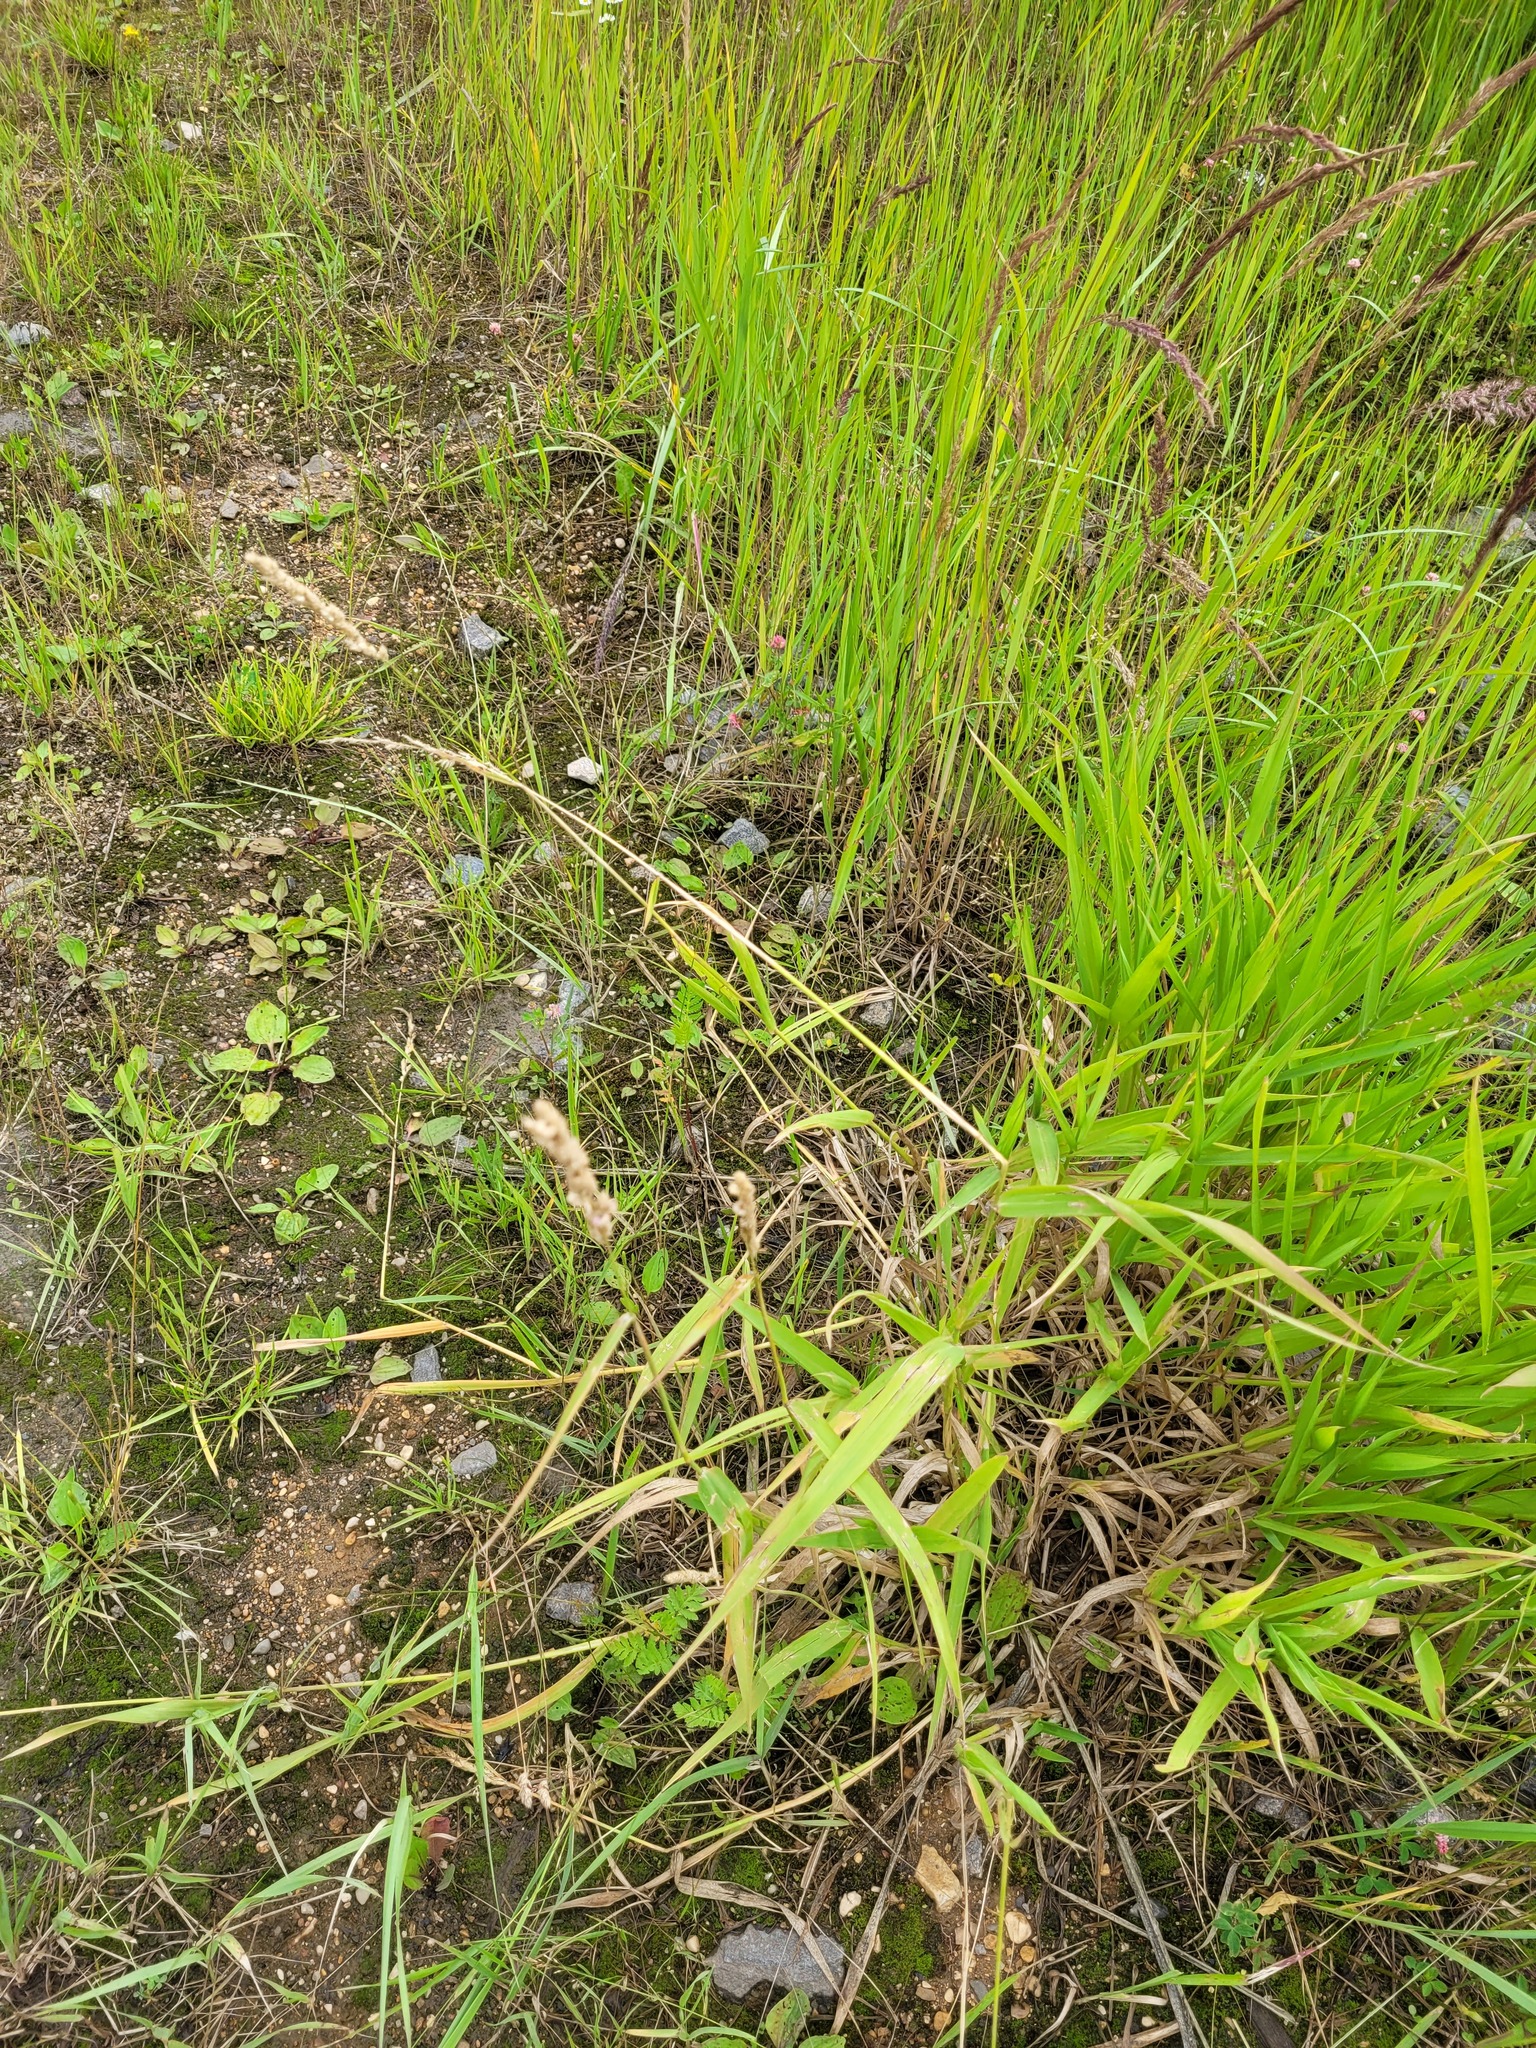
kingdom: Plantae
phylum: Tracheophyta
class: Liliopsida
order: Poales
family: Poaceae
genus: Phalaris
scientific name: Phalaris arundinacea
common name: Reed canary-grass
